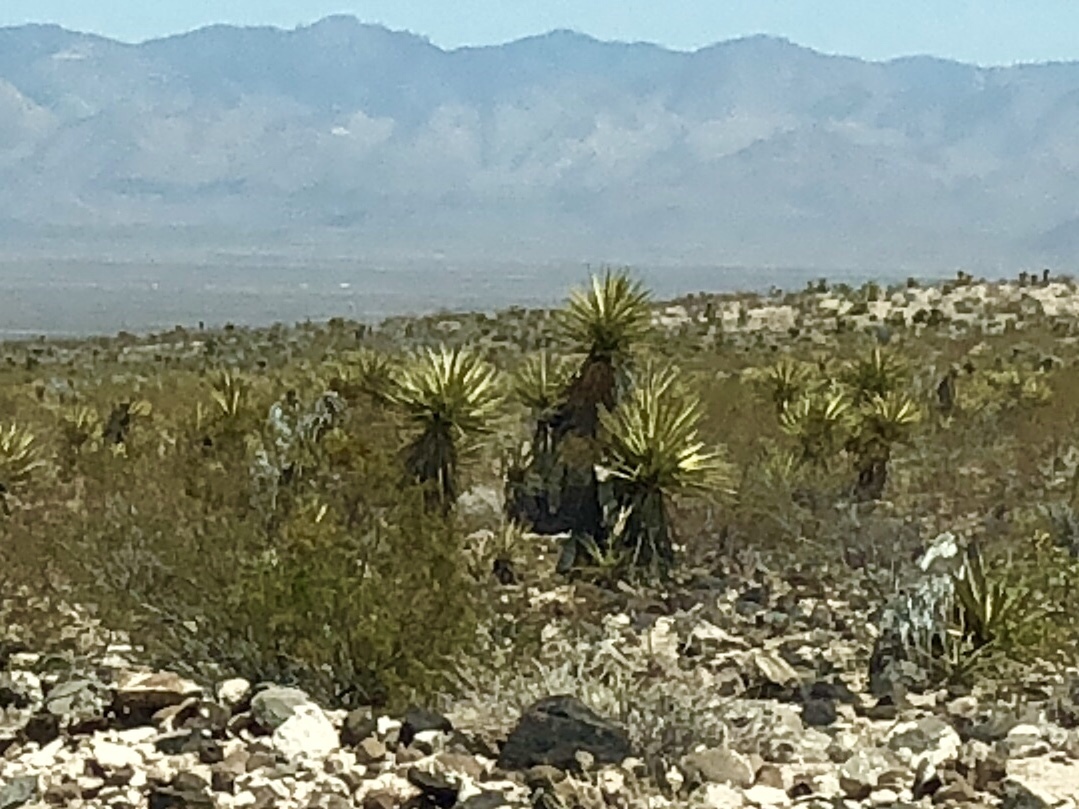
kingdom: Plantae
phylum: Tracheophyta
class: Liliopsida
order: Asparagales
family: Asparagaceae
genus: Yucca
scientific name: Yucca schidigera
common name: Mojave yucca
